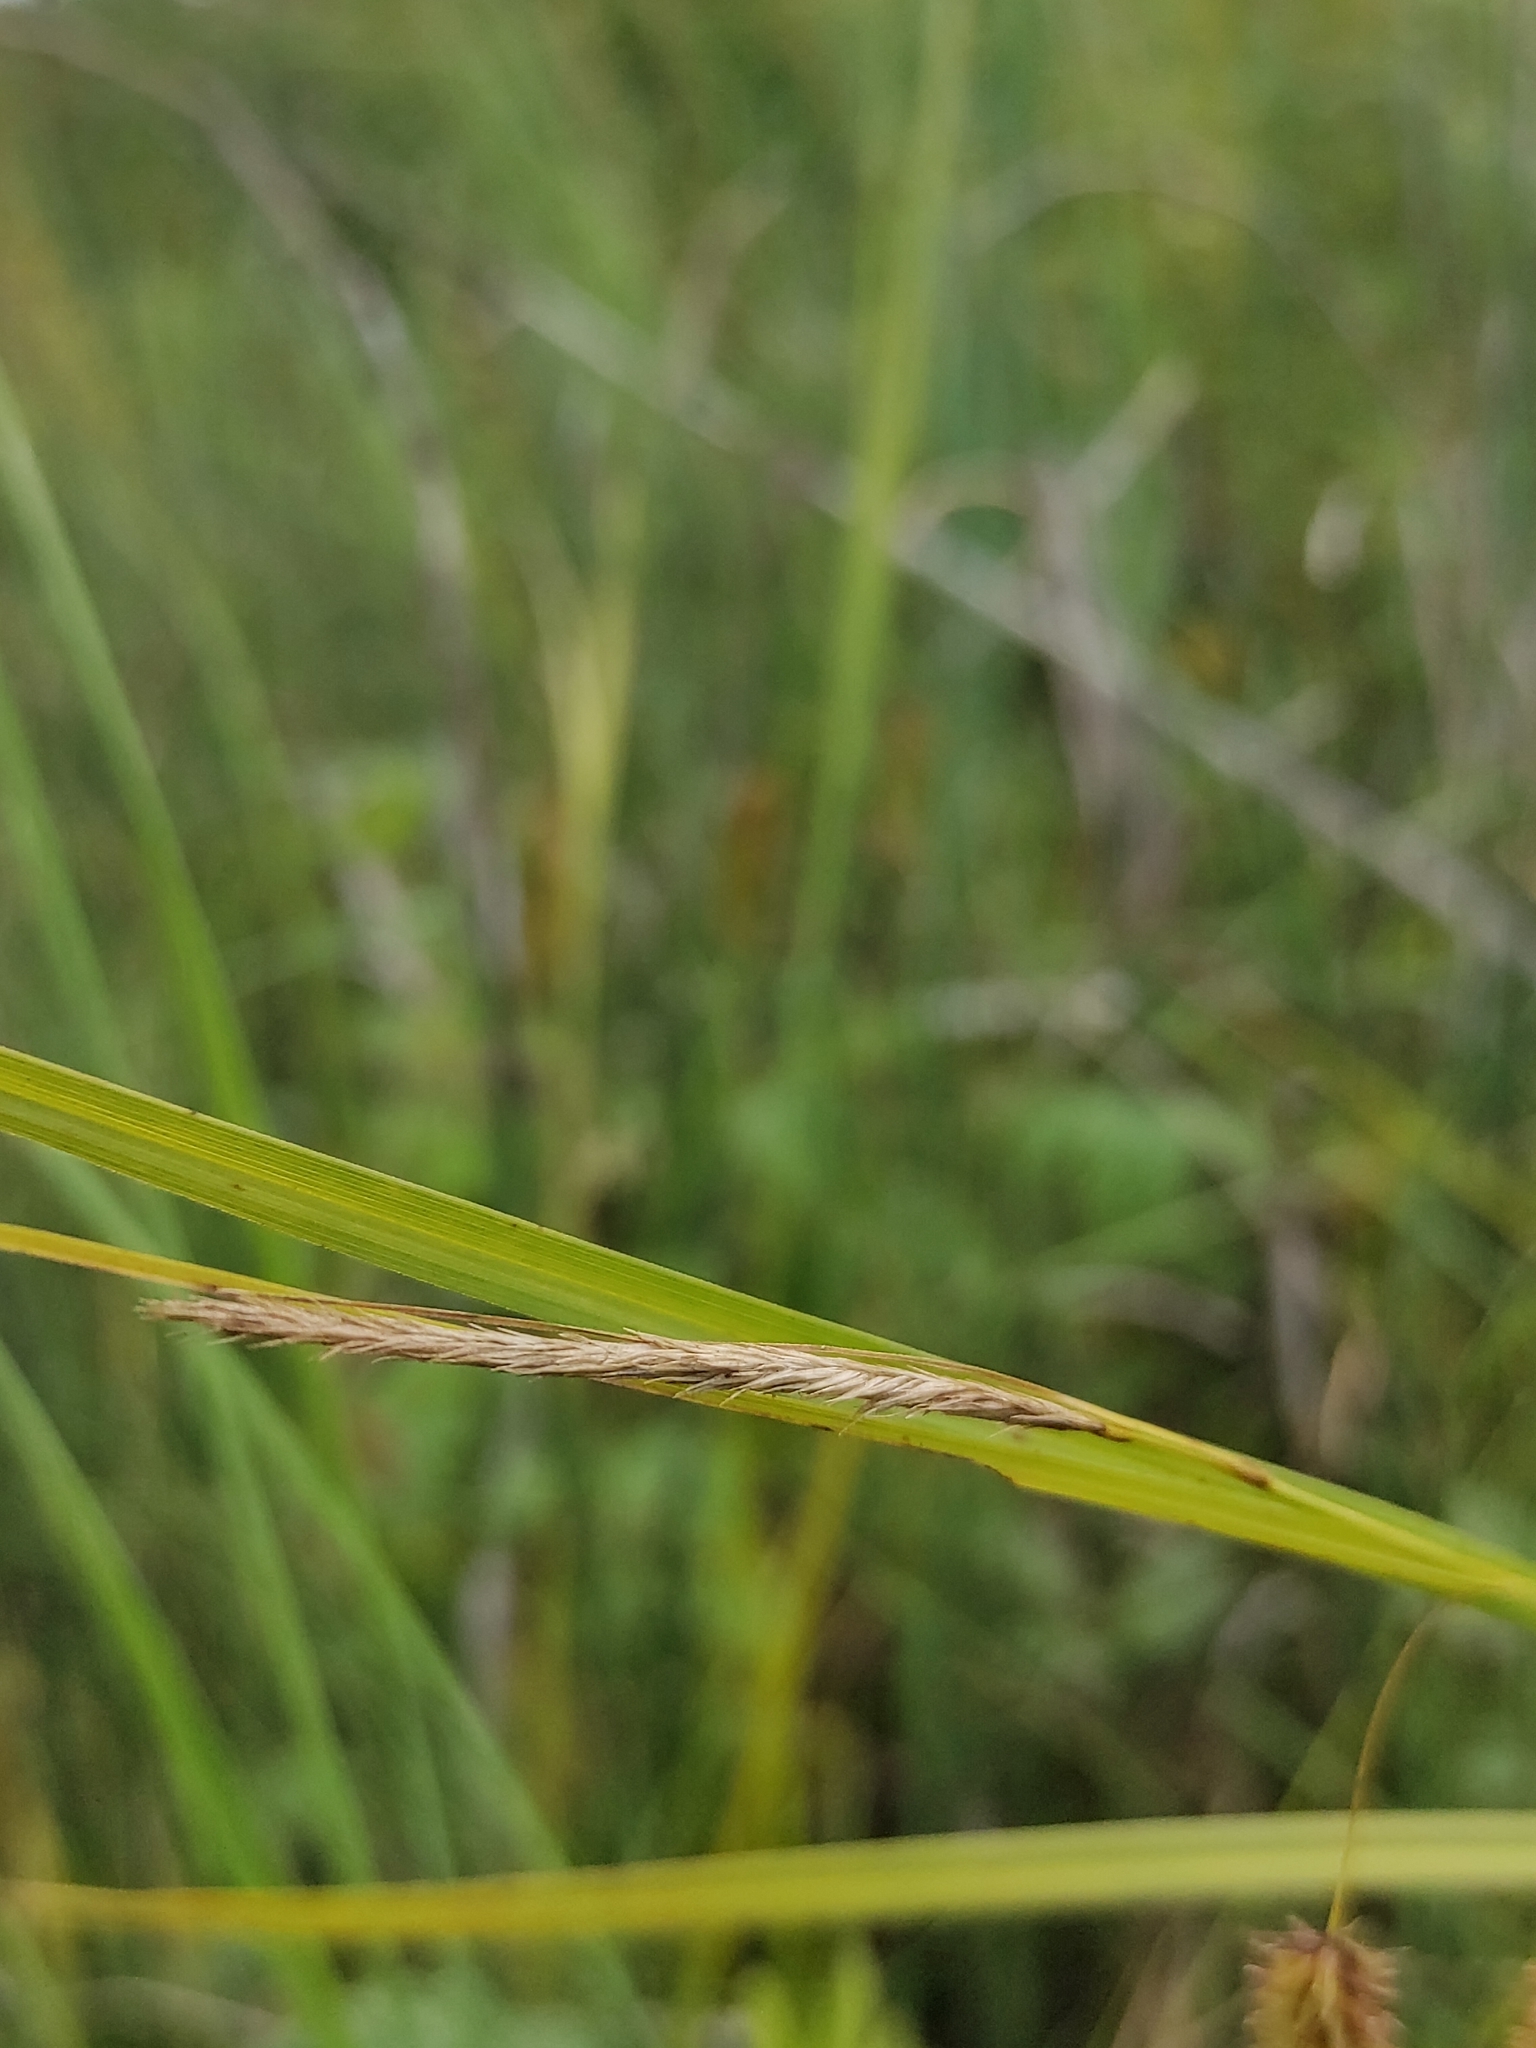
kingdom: Plantae
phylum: Tracheophyta
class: Liliopsida
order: Poales
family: Cyperaceae
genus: Carex
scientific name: Carex pseudocyperus
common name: Cyperus sedge
